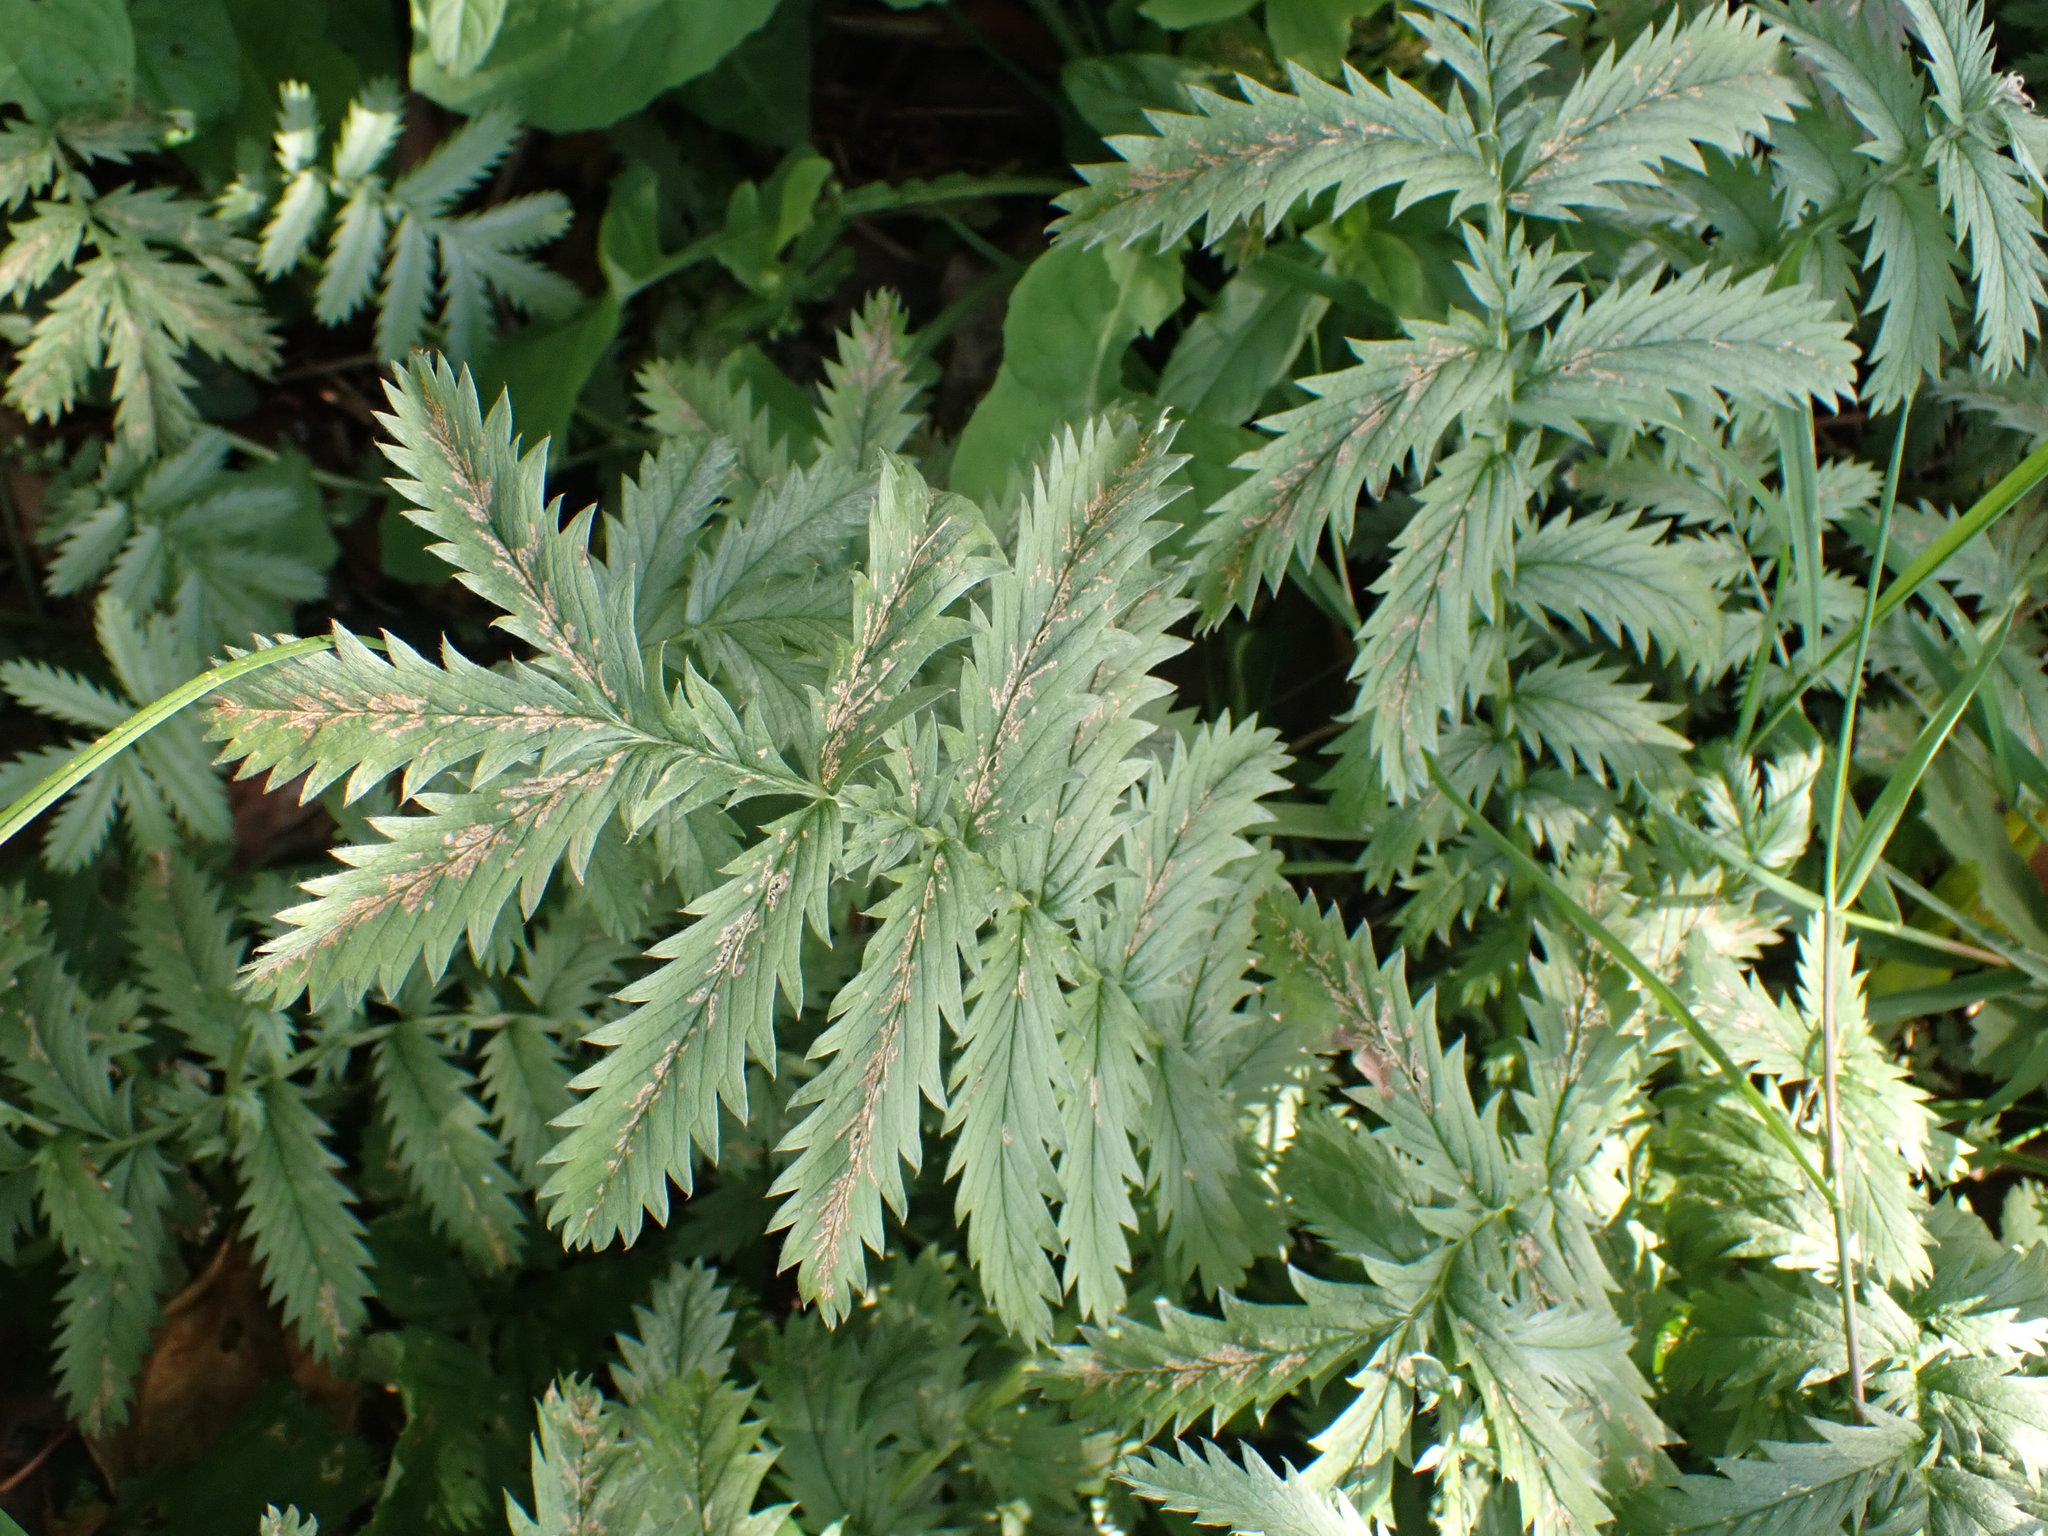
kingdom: Plantae
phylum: Tracheophyta
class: Magnoliopsida
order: Rosales
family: Rosaceae
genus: Argentina
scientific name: Argentina anserina
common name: Common silverweed
